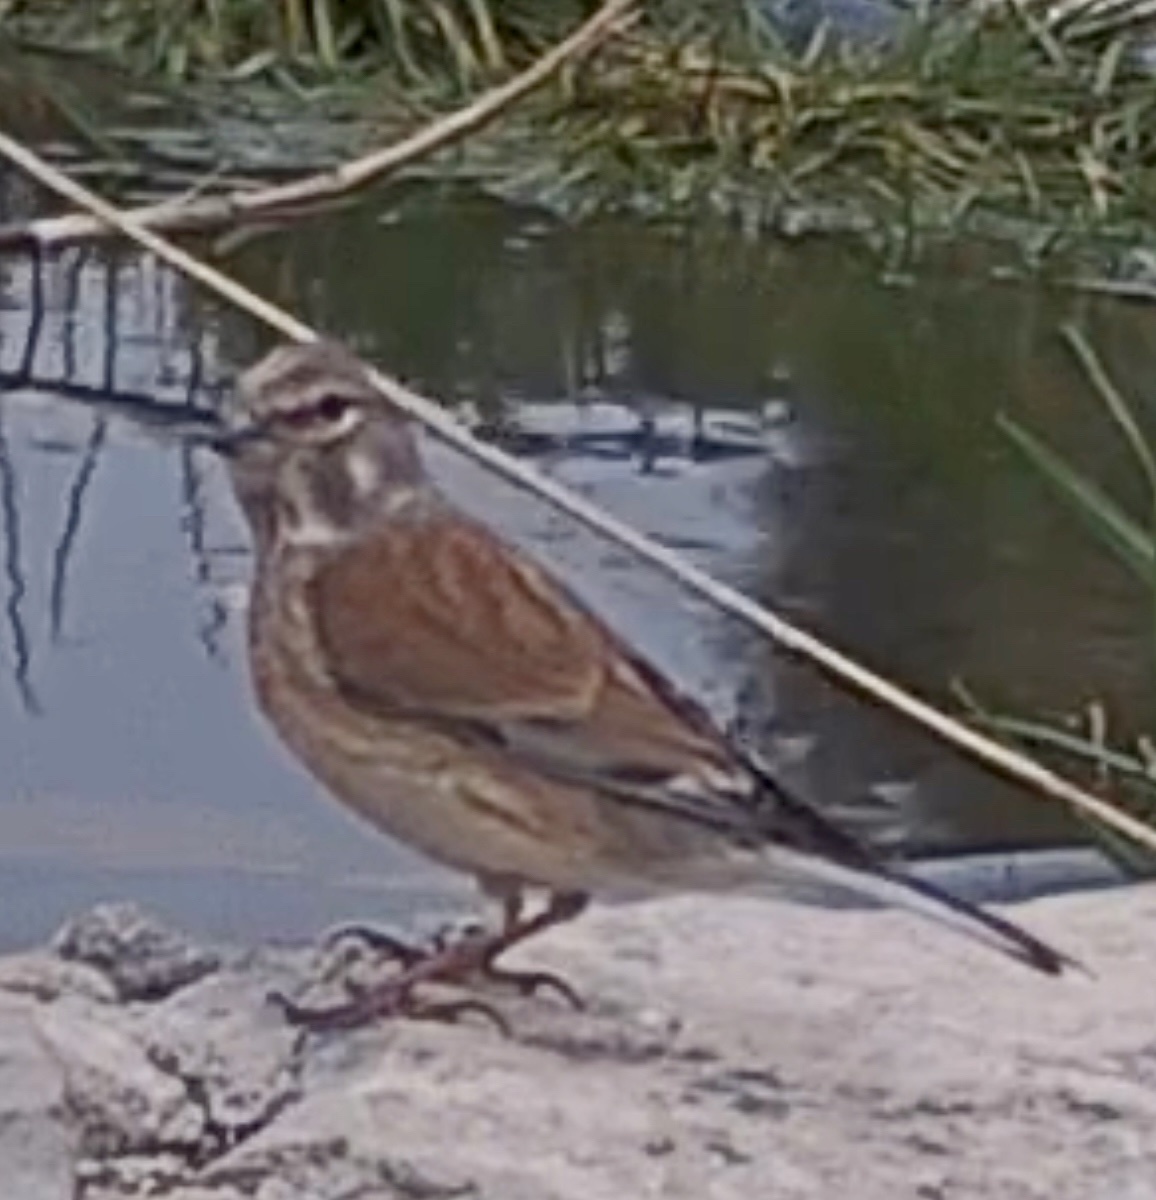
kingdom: Animalia
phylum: Chordata
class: Aves
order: Passeriformes
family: Fringillidae
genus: Linaria
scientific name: Linaria cannabina
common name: Common linnet
